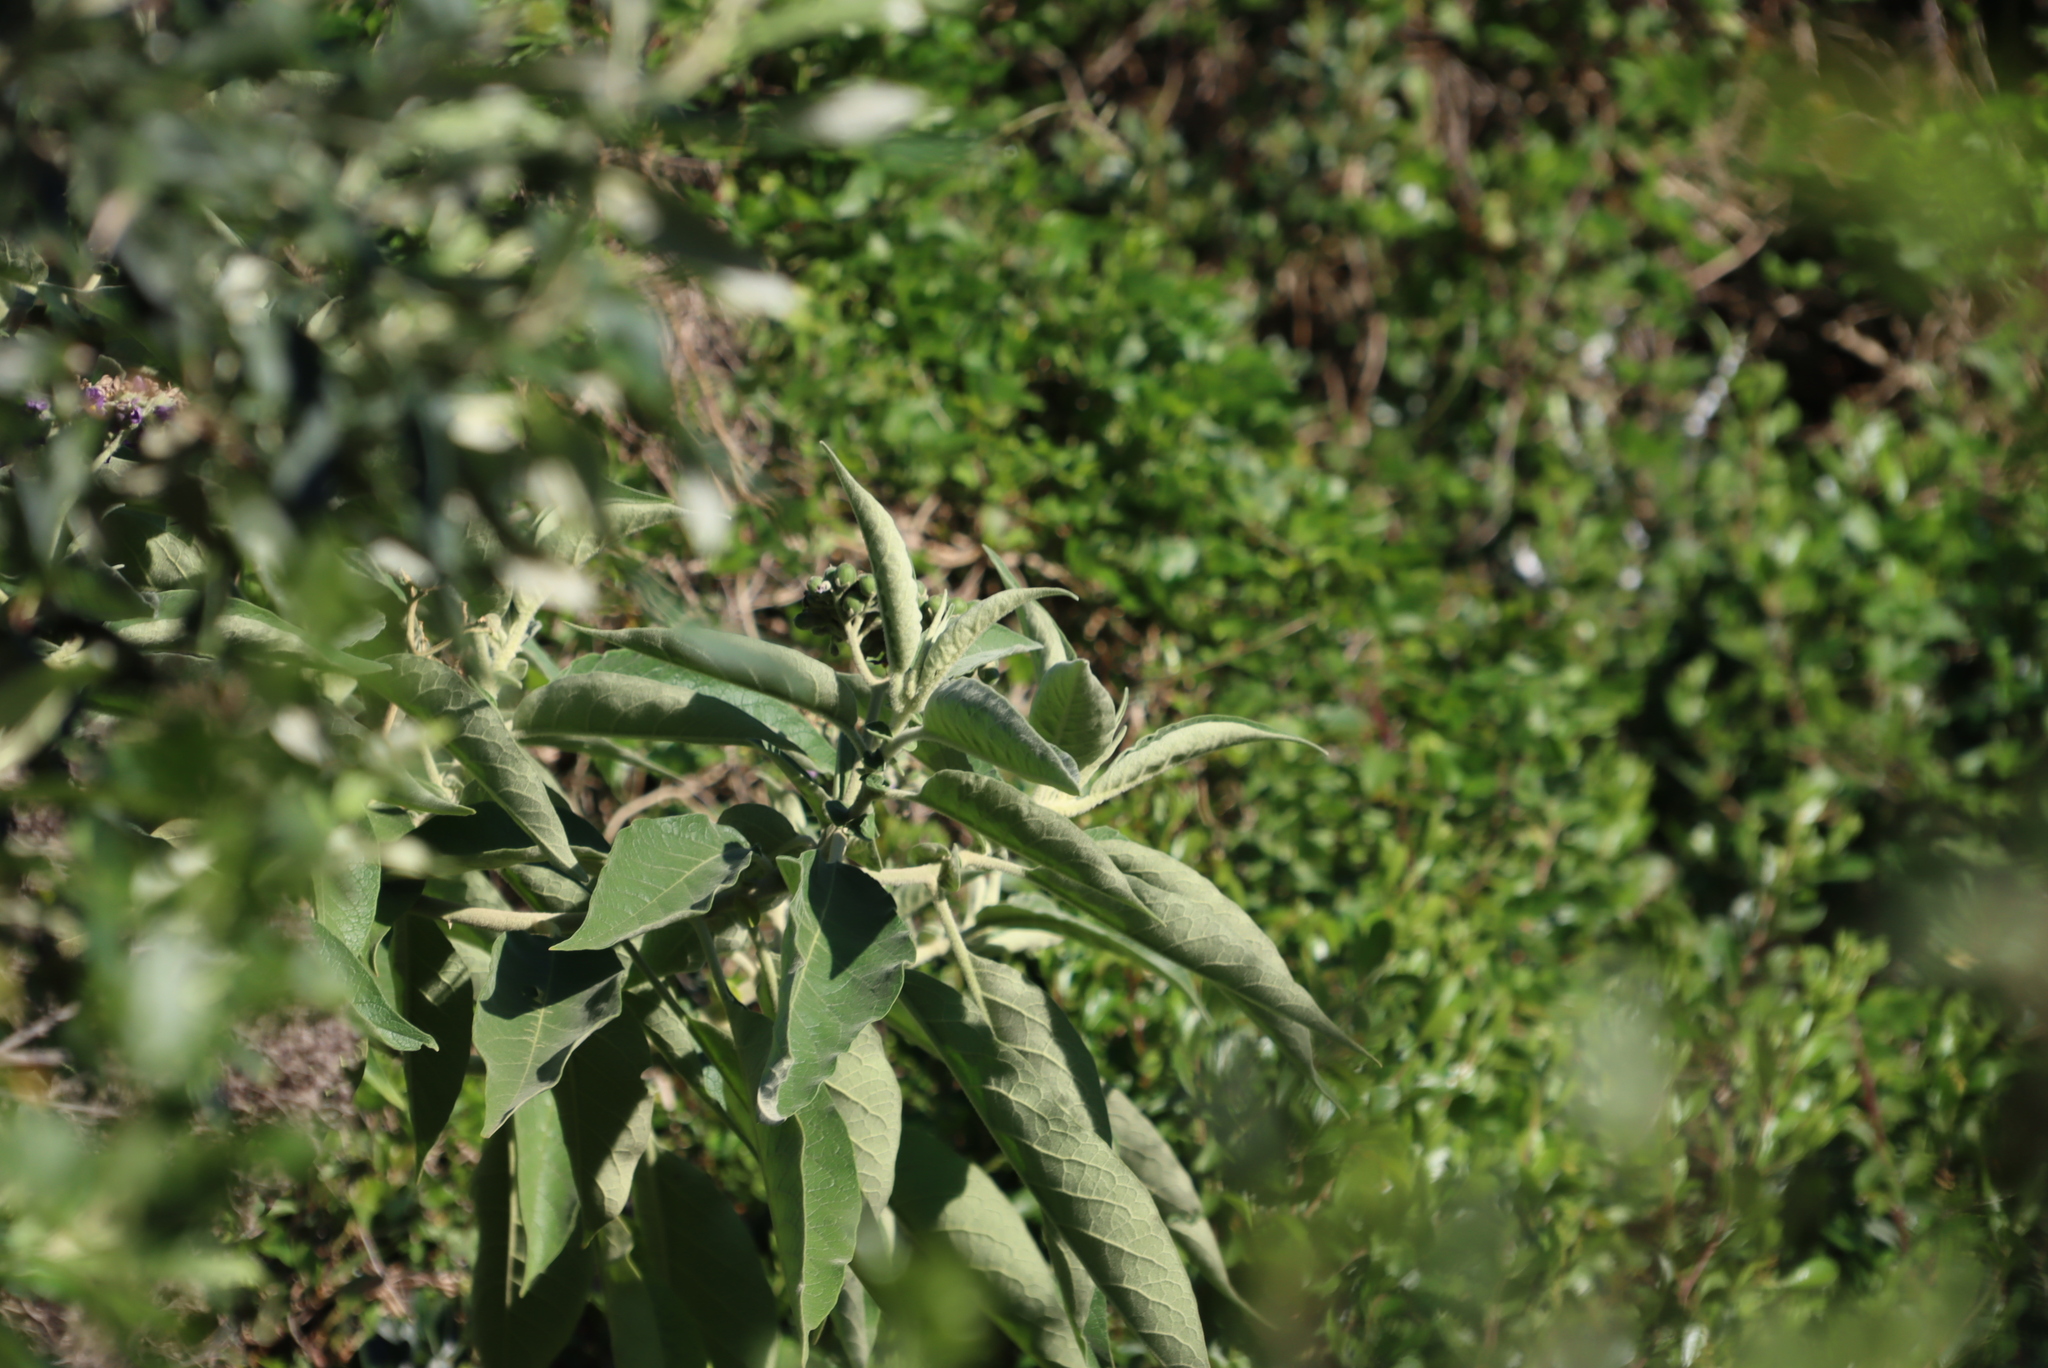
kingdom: Plantae
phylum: Tracheophyta
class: Magnoliopsida
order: Solanales
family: Solanaceae
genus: Solanum
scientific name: Solanum mauritianum
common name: Earleaf nightshade
